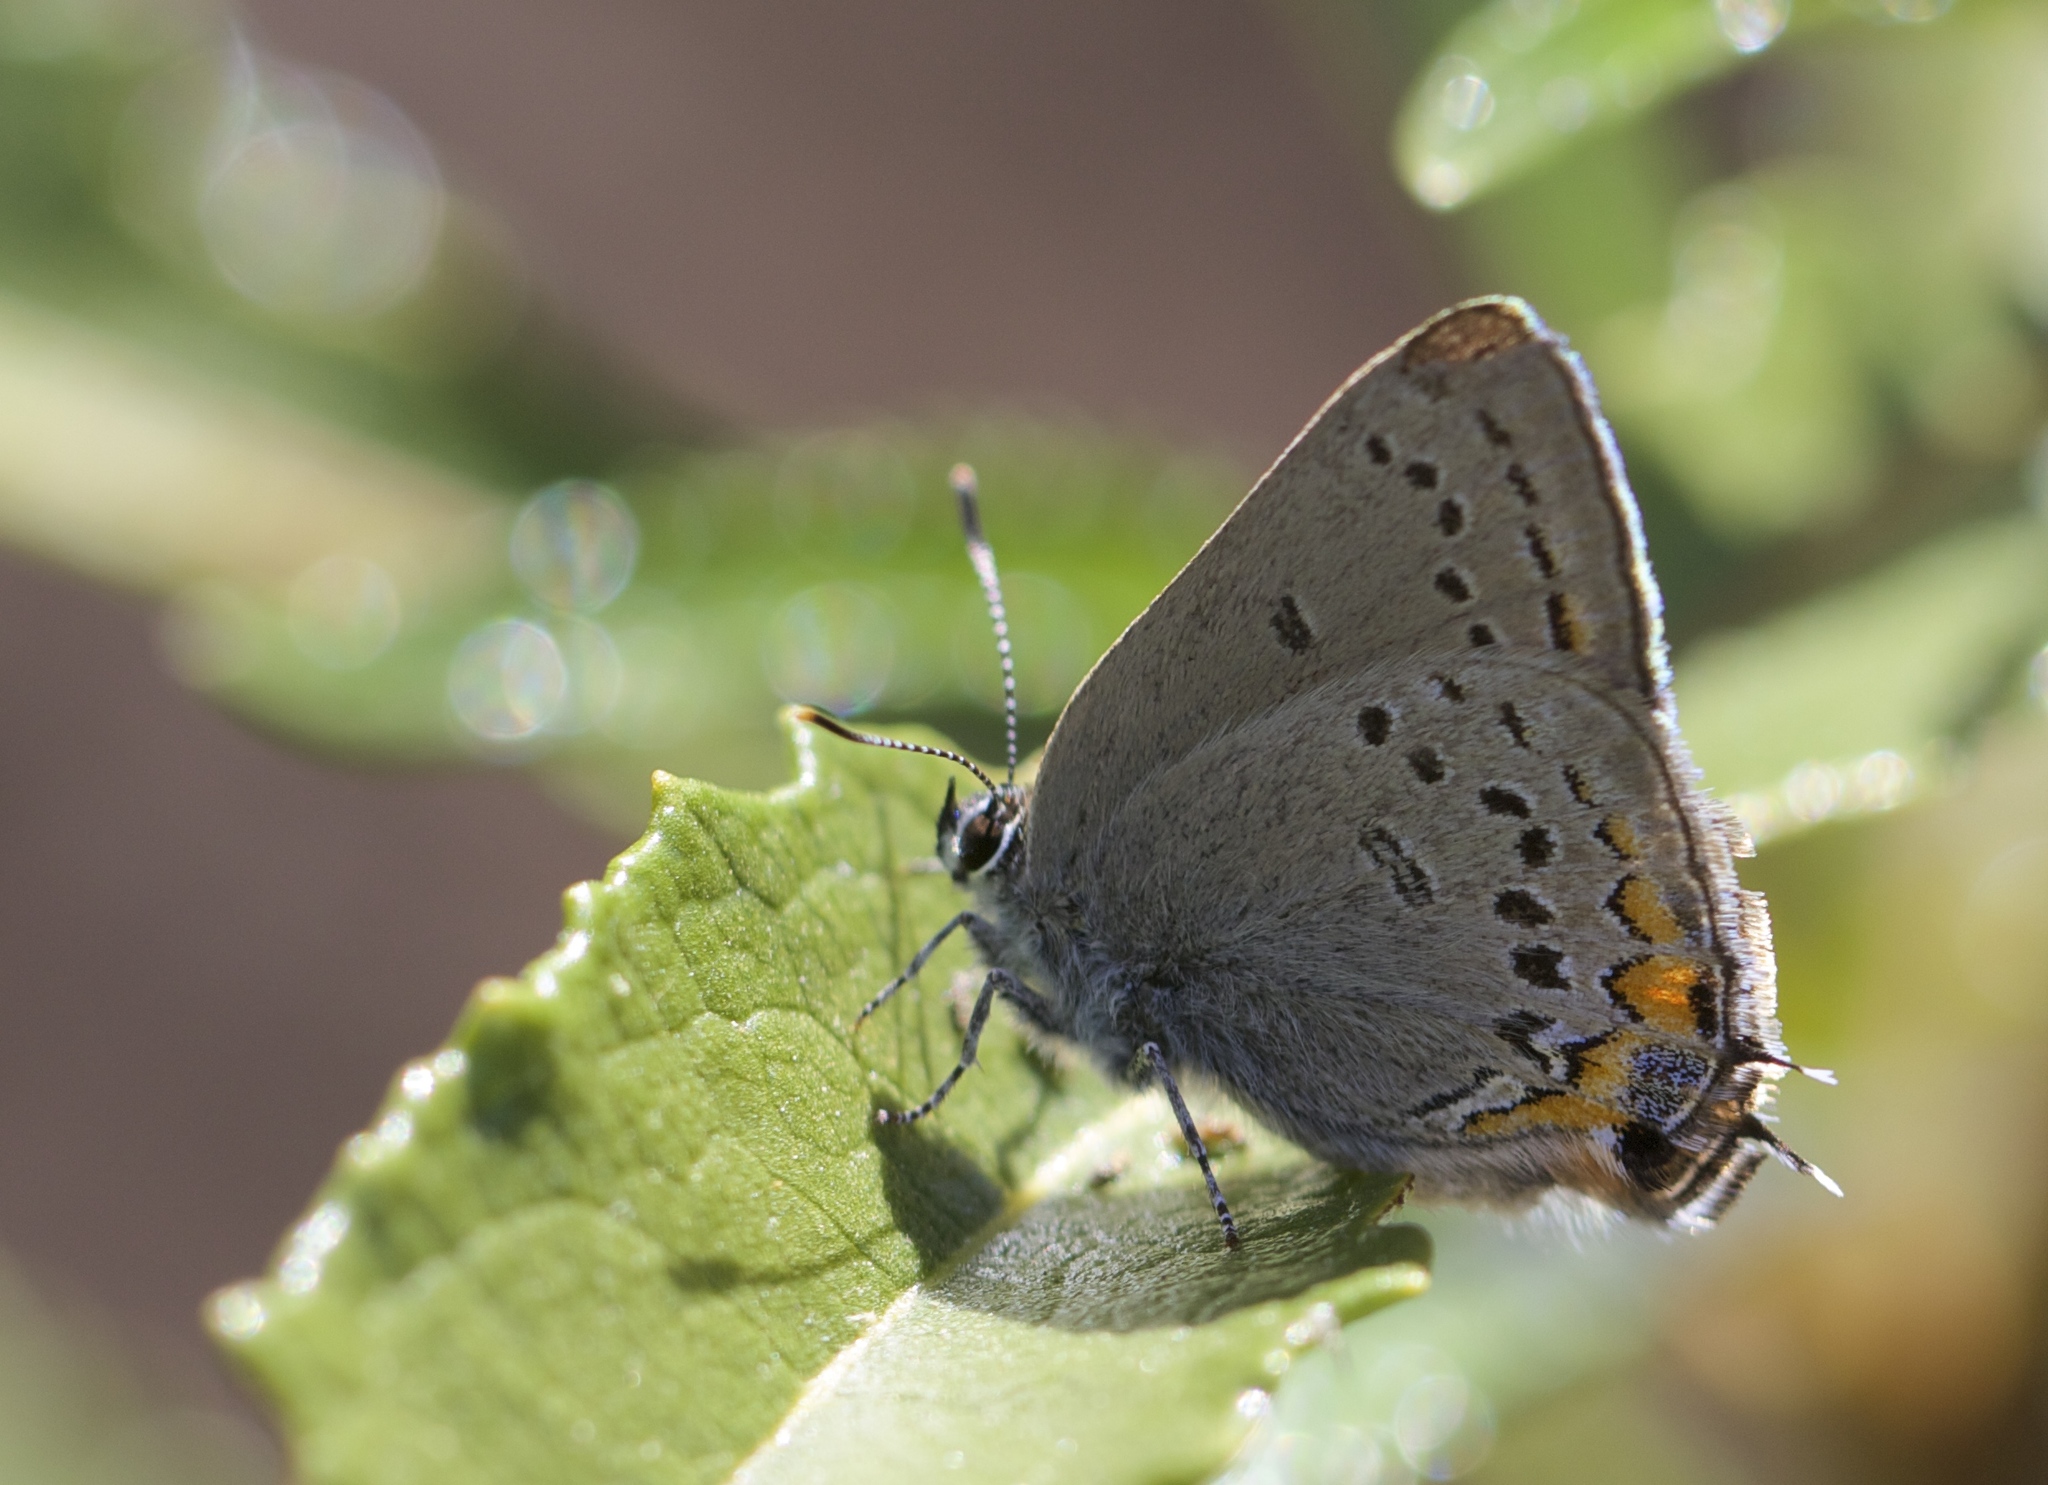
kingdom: Animalia
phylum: Arthropoda
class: Insecta
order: Lepidoptera
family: Lycaenidae
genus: Strymon
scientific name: Strymon acadica
